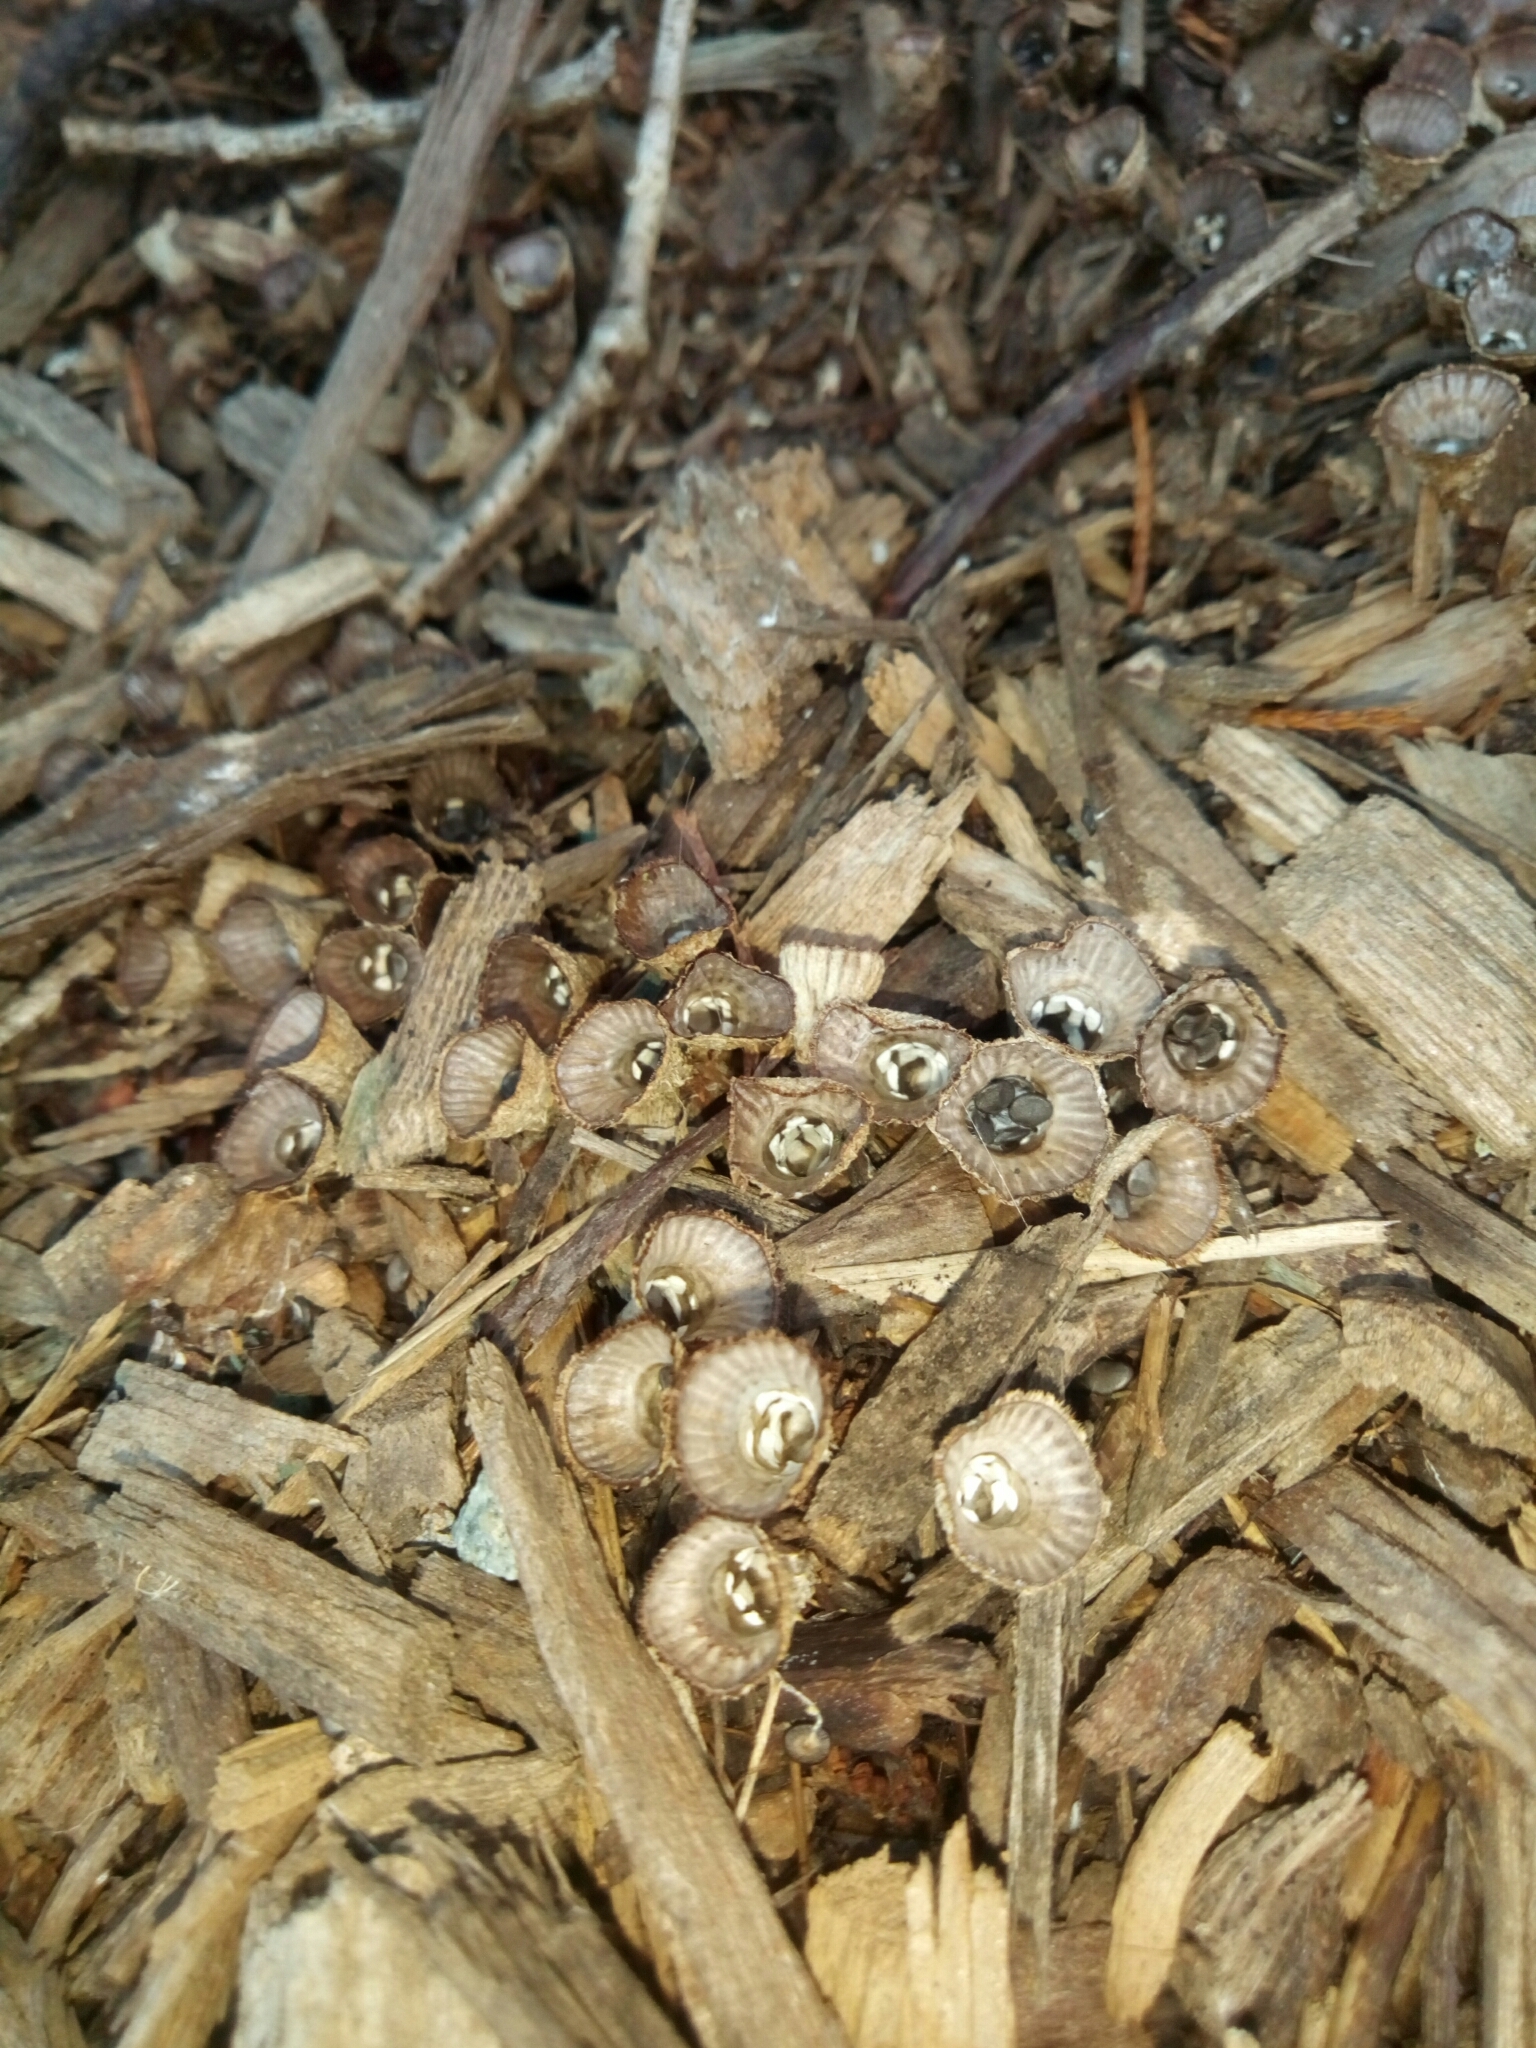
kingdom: Fungi
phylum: Basidiomycota
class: Agaricomycetes
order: Agaricales
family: Agaricaceae
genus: Cyathus
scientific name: Cyathus striatus
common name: Fluted bird's nest
